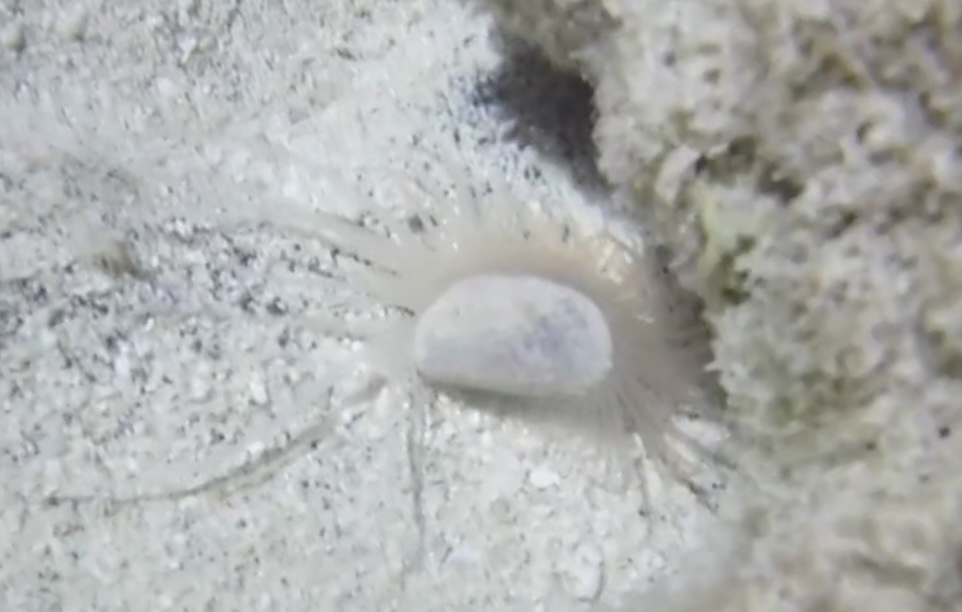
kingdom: Animalia
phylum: Mollusca
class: Bivalvia
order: Limida
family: Limidae
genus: Limaria
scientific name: Limaria pellucida
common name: Antillean fileclam
